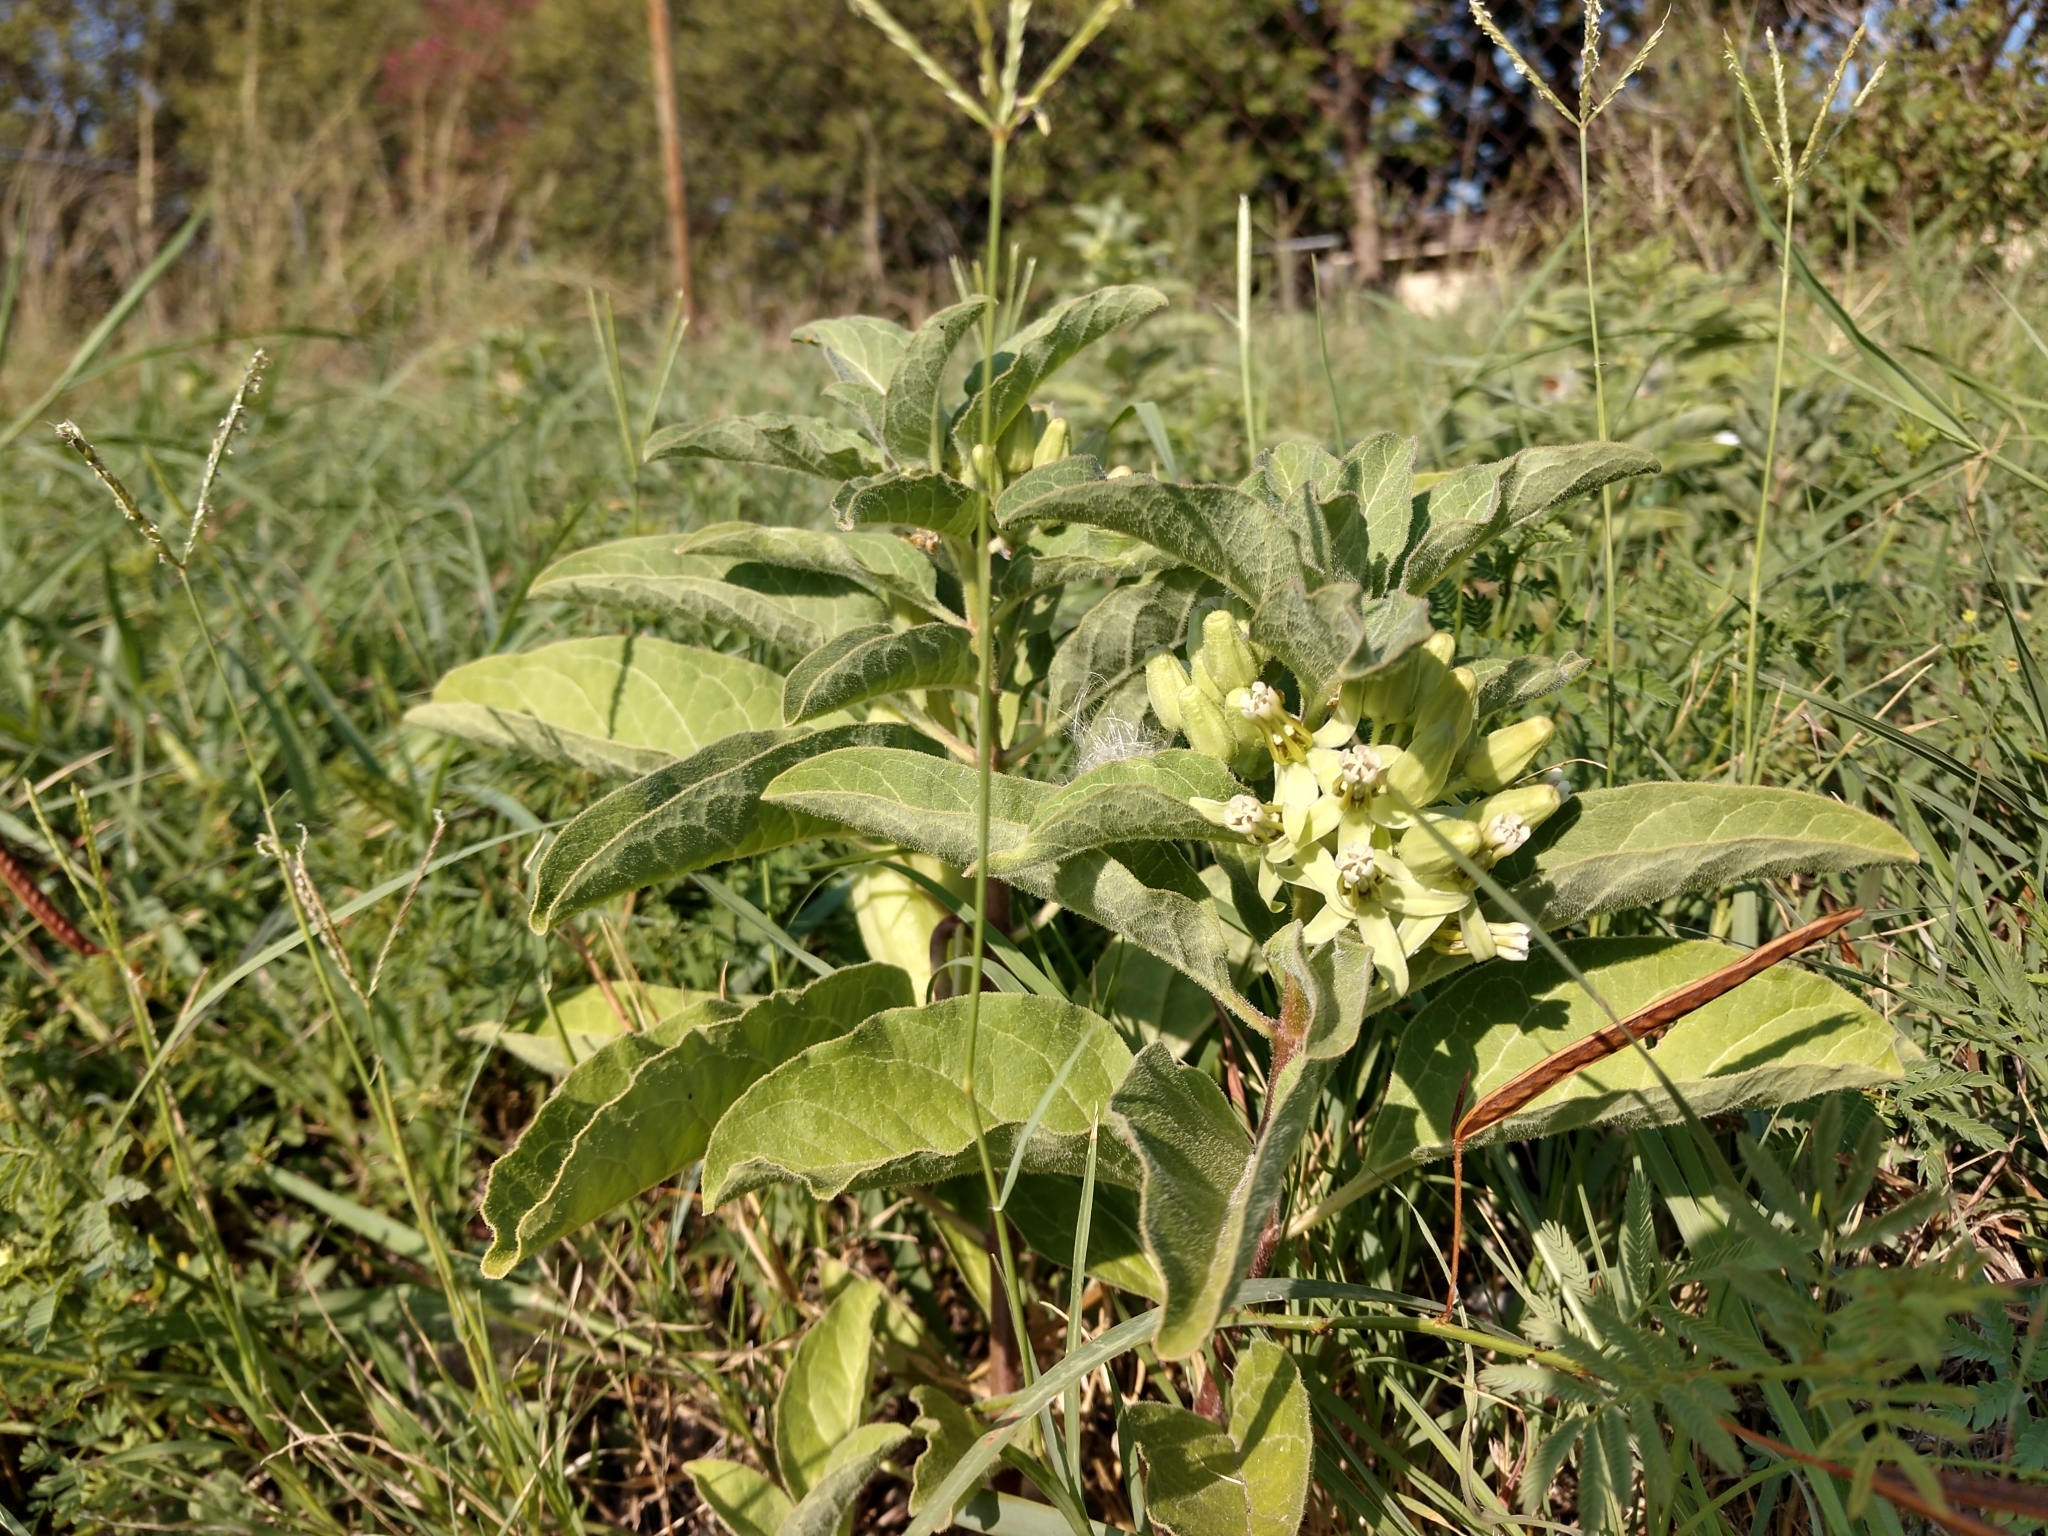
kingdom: Plantae
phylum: Tracheophyta
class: Magnoliopsida
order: Gentianales
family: Apocynaceae
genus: Asclepias
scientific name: Asclepias oenotheroides
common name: Zizotes milkweed
